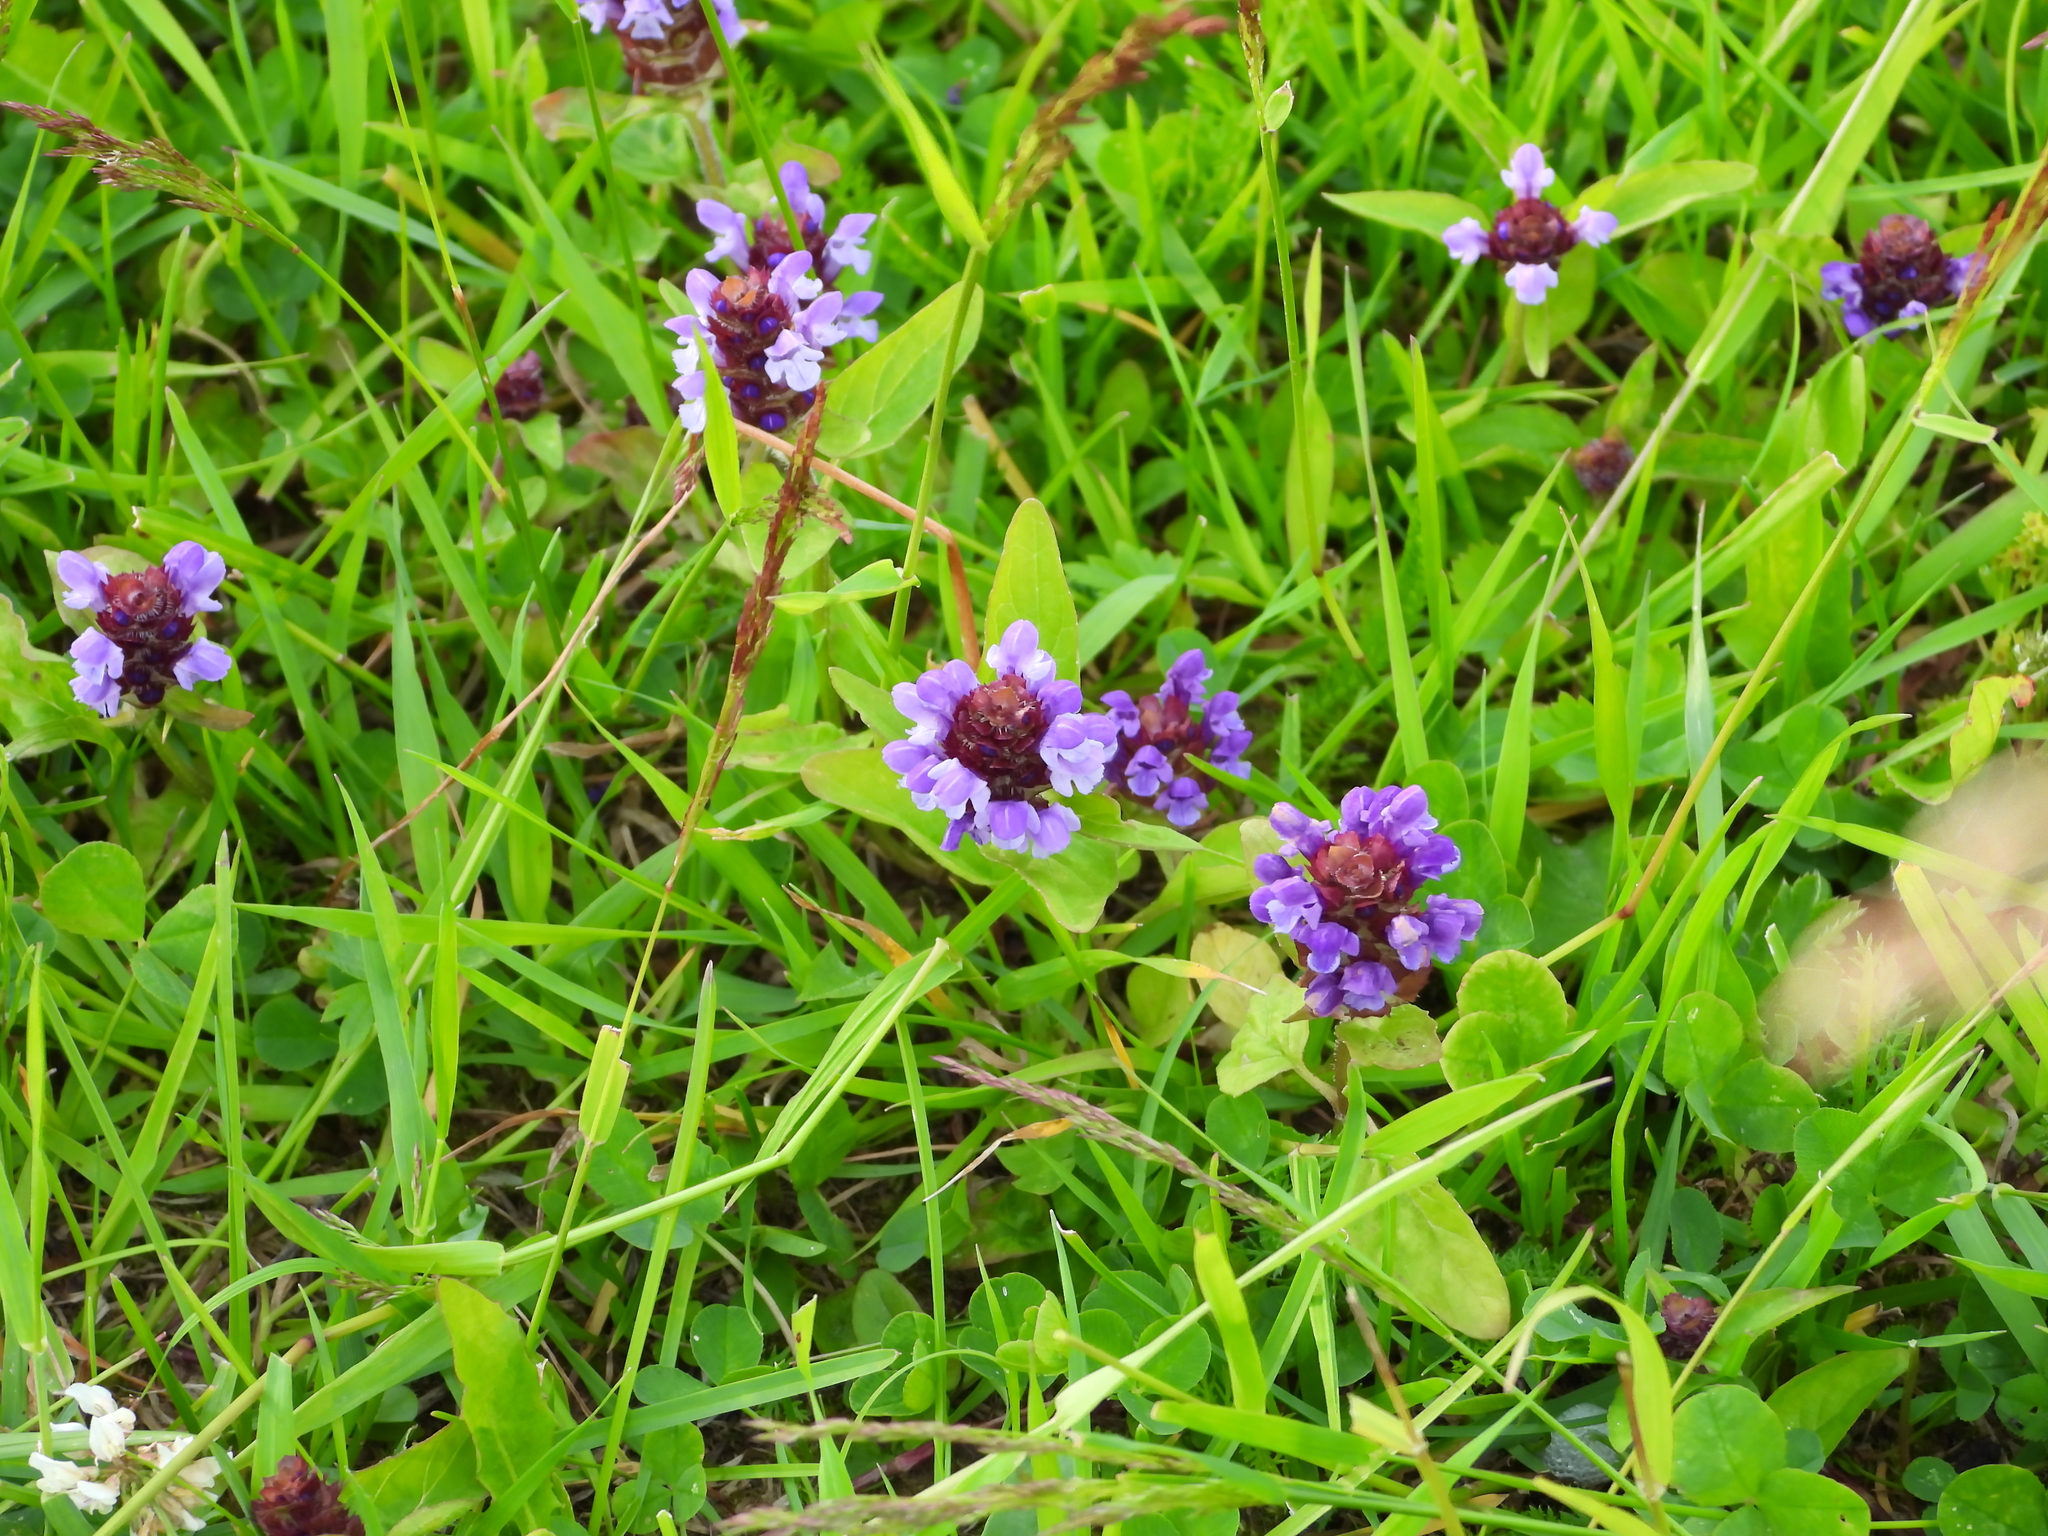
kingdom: Plantae
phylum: Tracheophyta
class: Magnoliopsida
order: Lamiales
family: Lamiaceae
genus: Prunella
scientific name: Prunella vulgaris
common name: Heal-all
